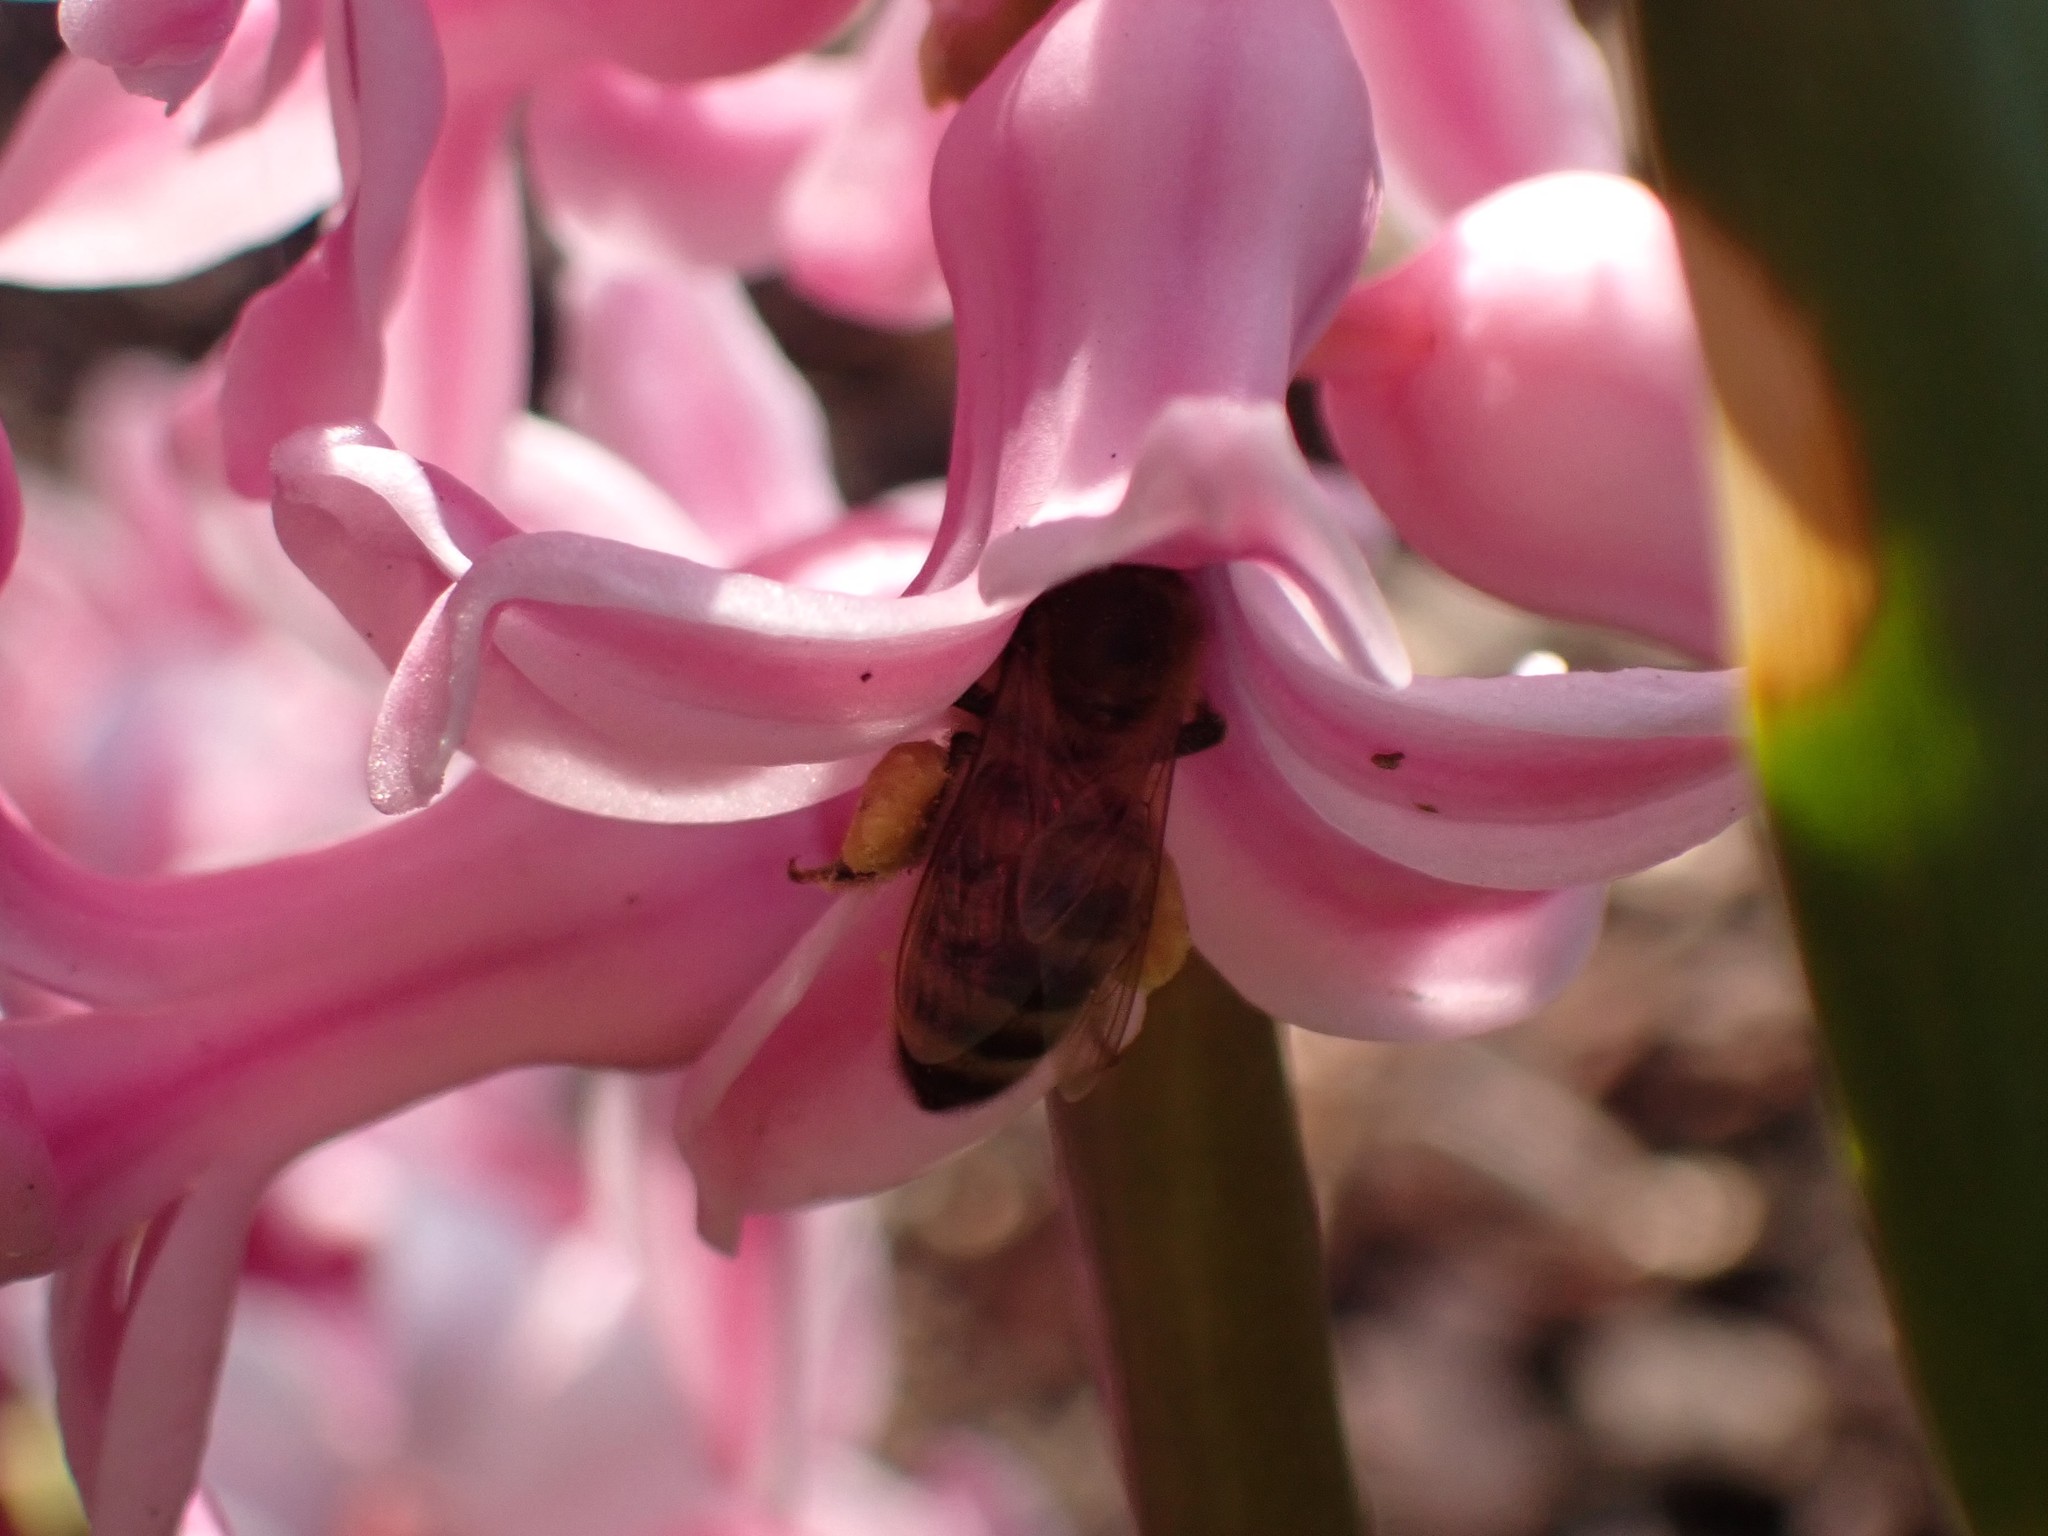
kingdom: Animalia
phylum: Arthropoda
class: Insecta
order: Hymenoptera
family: Apidae
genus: Apis
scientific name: Apis mellifera
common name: Honey bee
